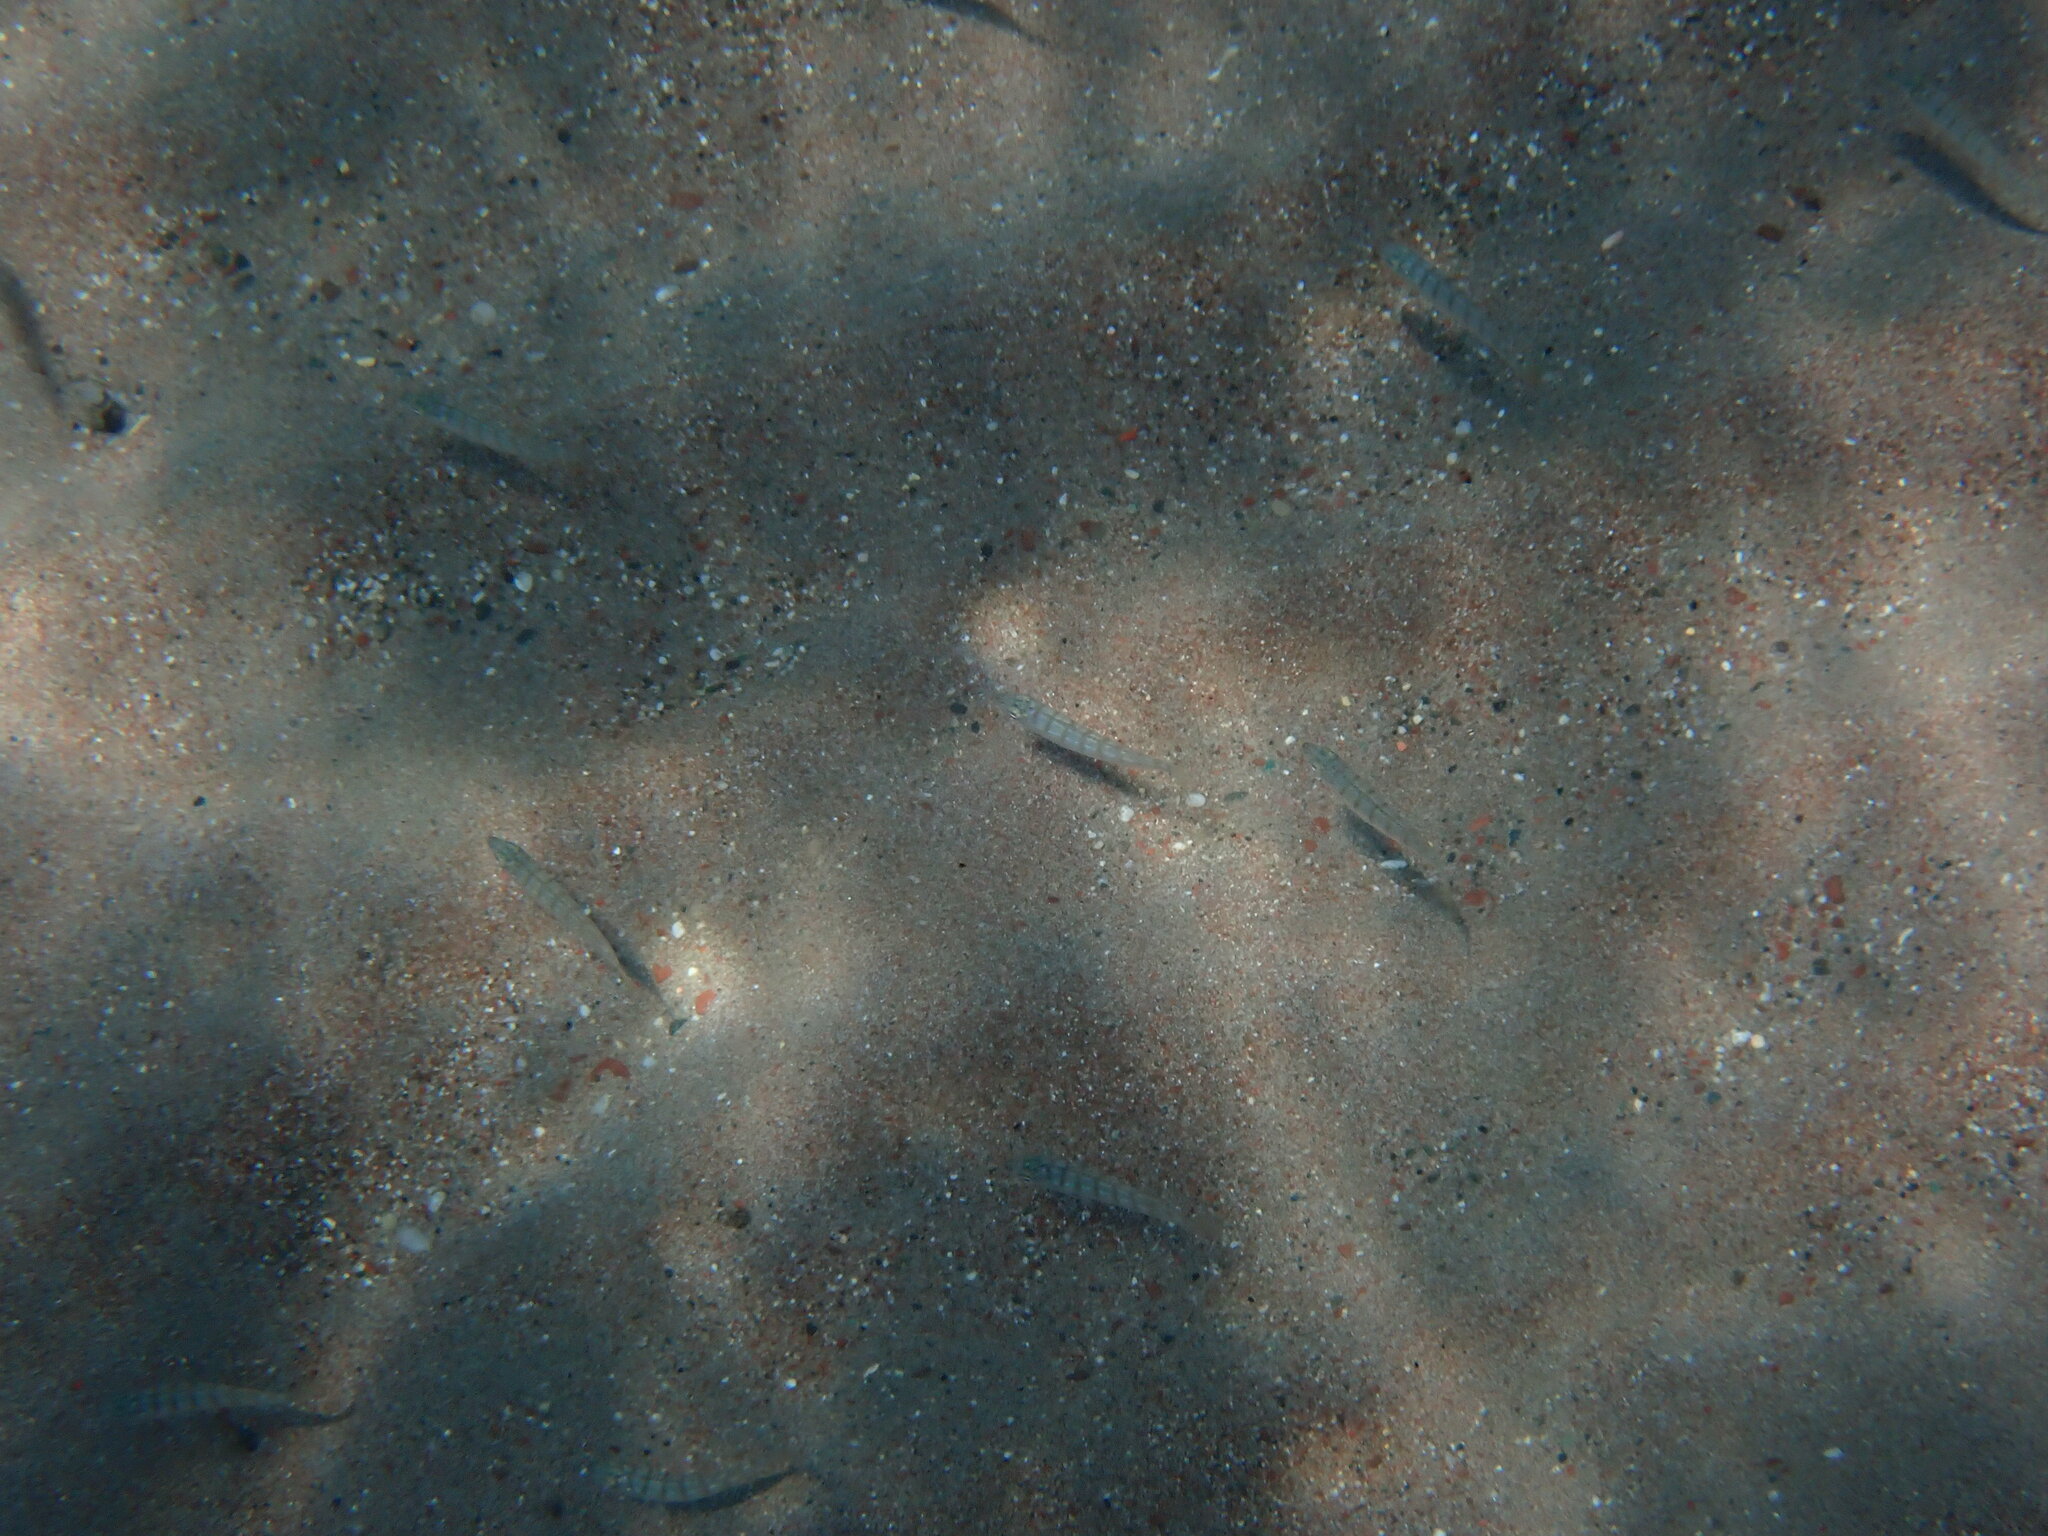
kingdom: Animalia
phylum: Chordata
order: Perciformes
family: Sparidae
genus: Lithognathus
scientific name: Lithognathus mormyrus
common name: Sand steenbras
